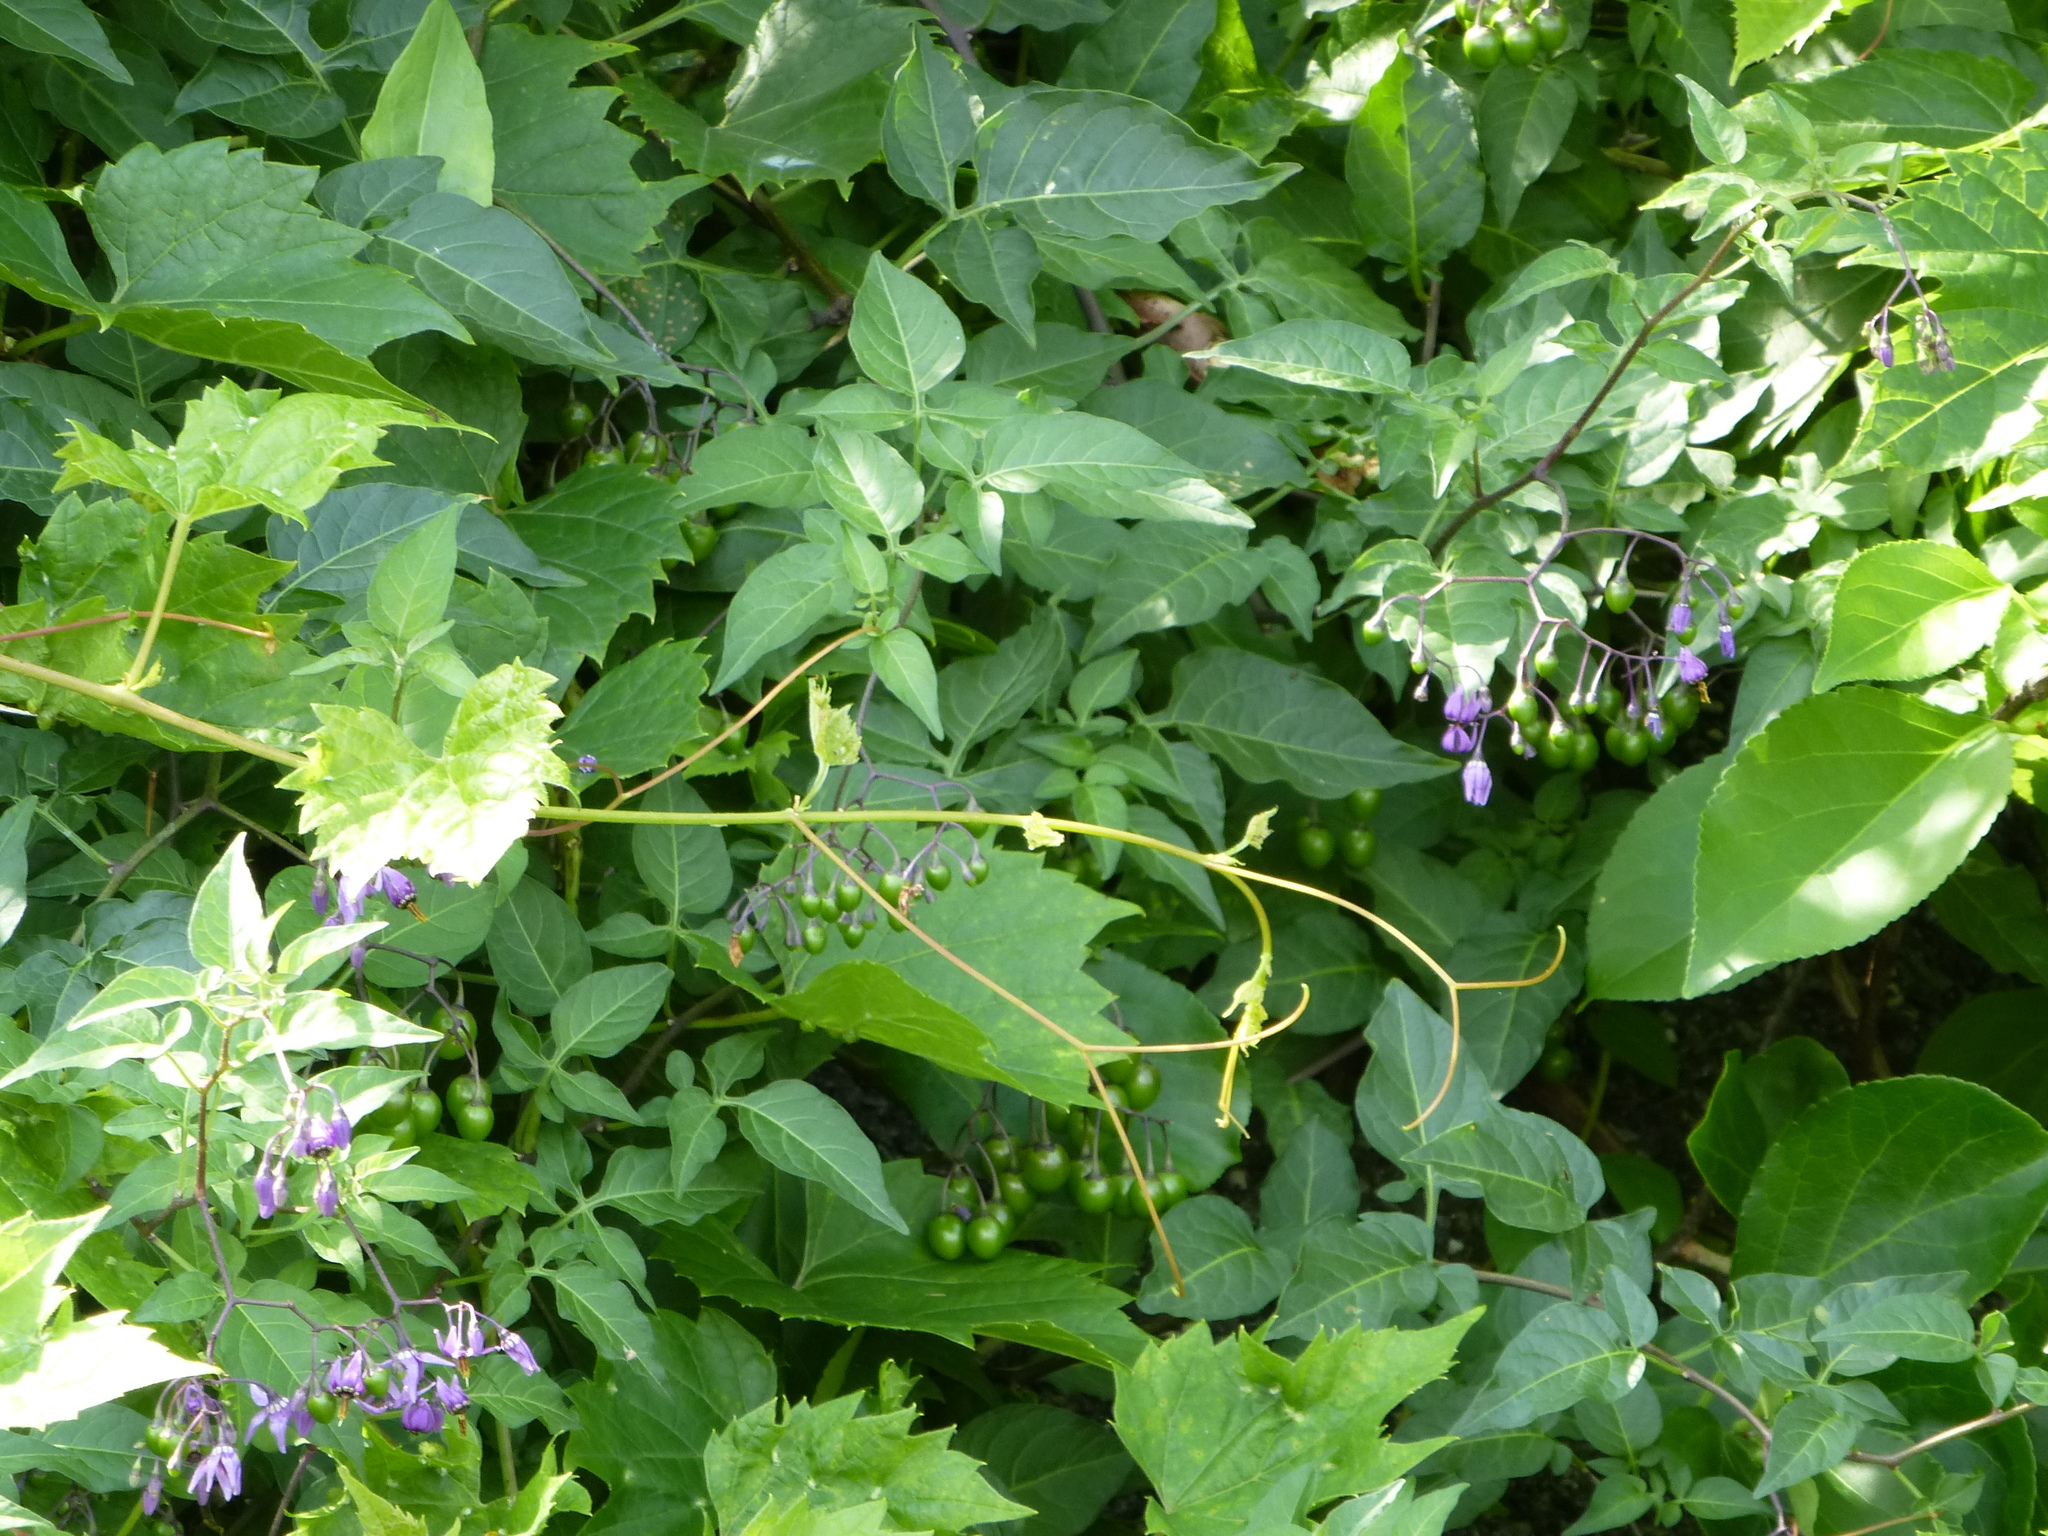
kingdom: Plantae
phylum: Tracheophyta
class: Magnoliopsida
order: Solanales
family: Solanaceae
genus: Solanum
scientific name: Solanum dulcamara
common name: Climbing nightshade
